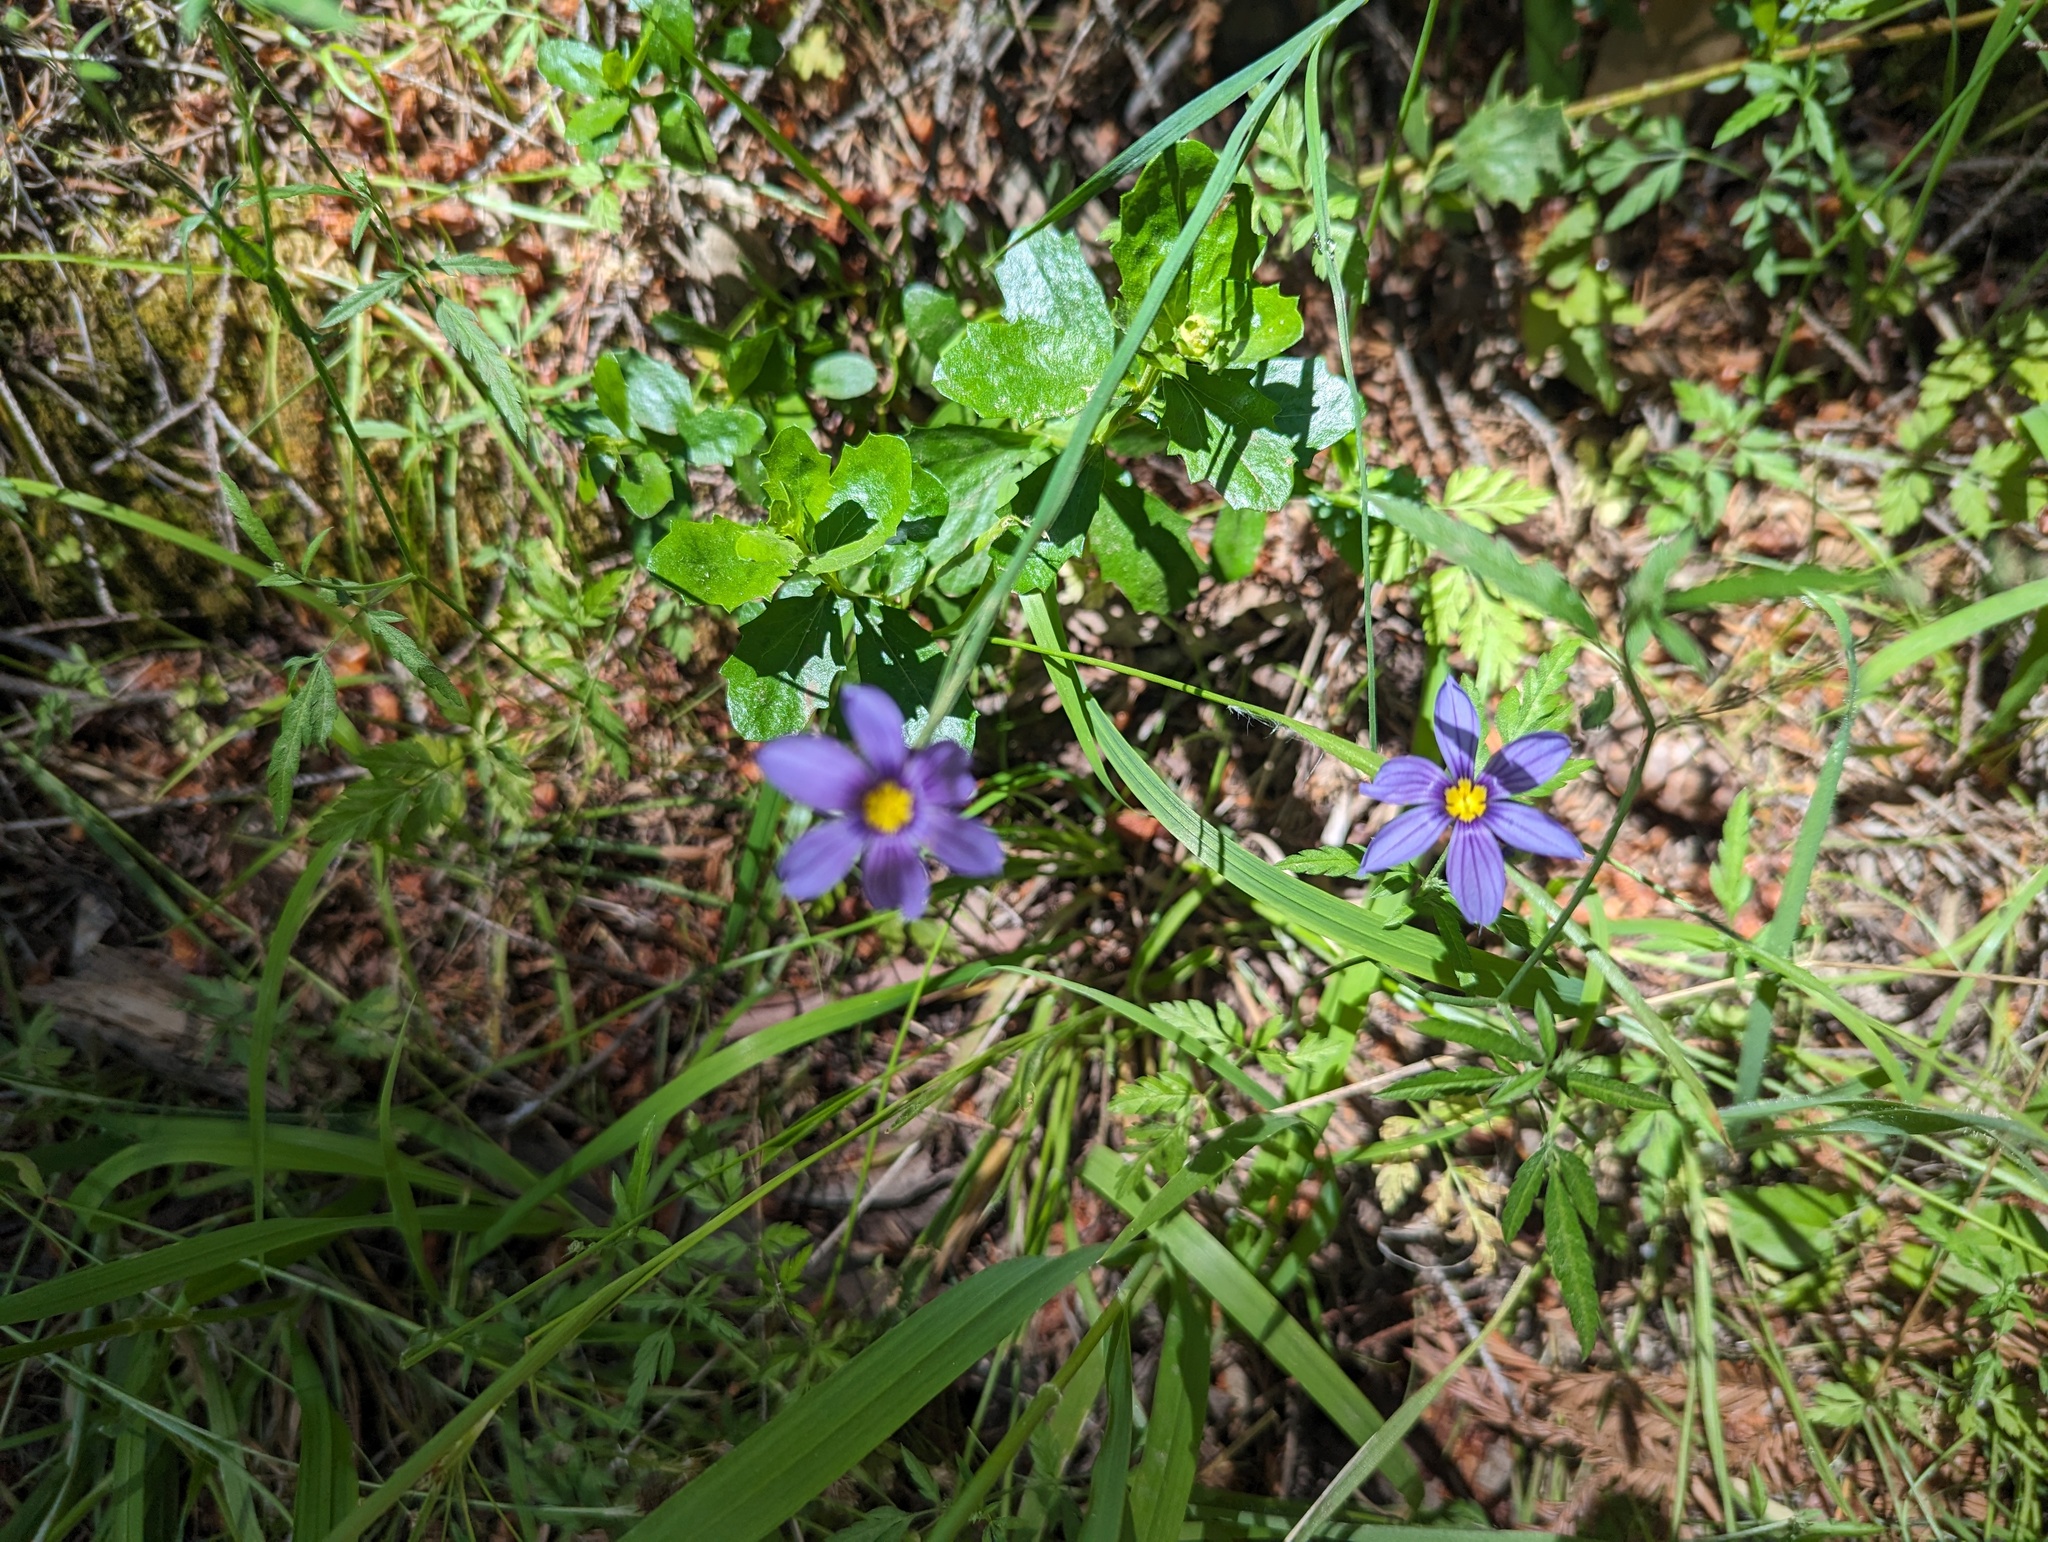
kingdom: Plantae
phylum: Tracheophyta
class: Liliopsida
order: Asparagales
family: Iridaceae
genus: Sisyrinchium
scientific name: Sisyrinchium bellum
